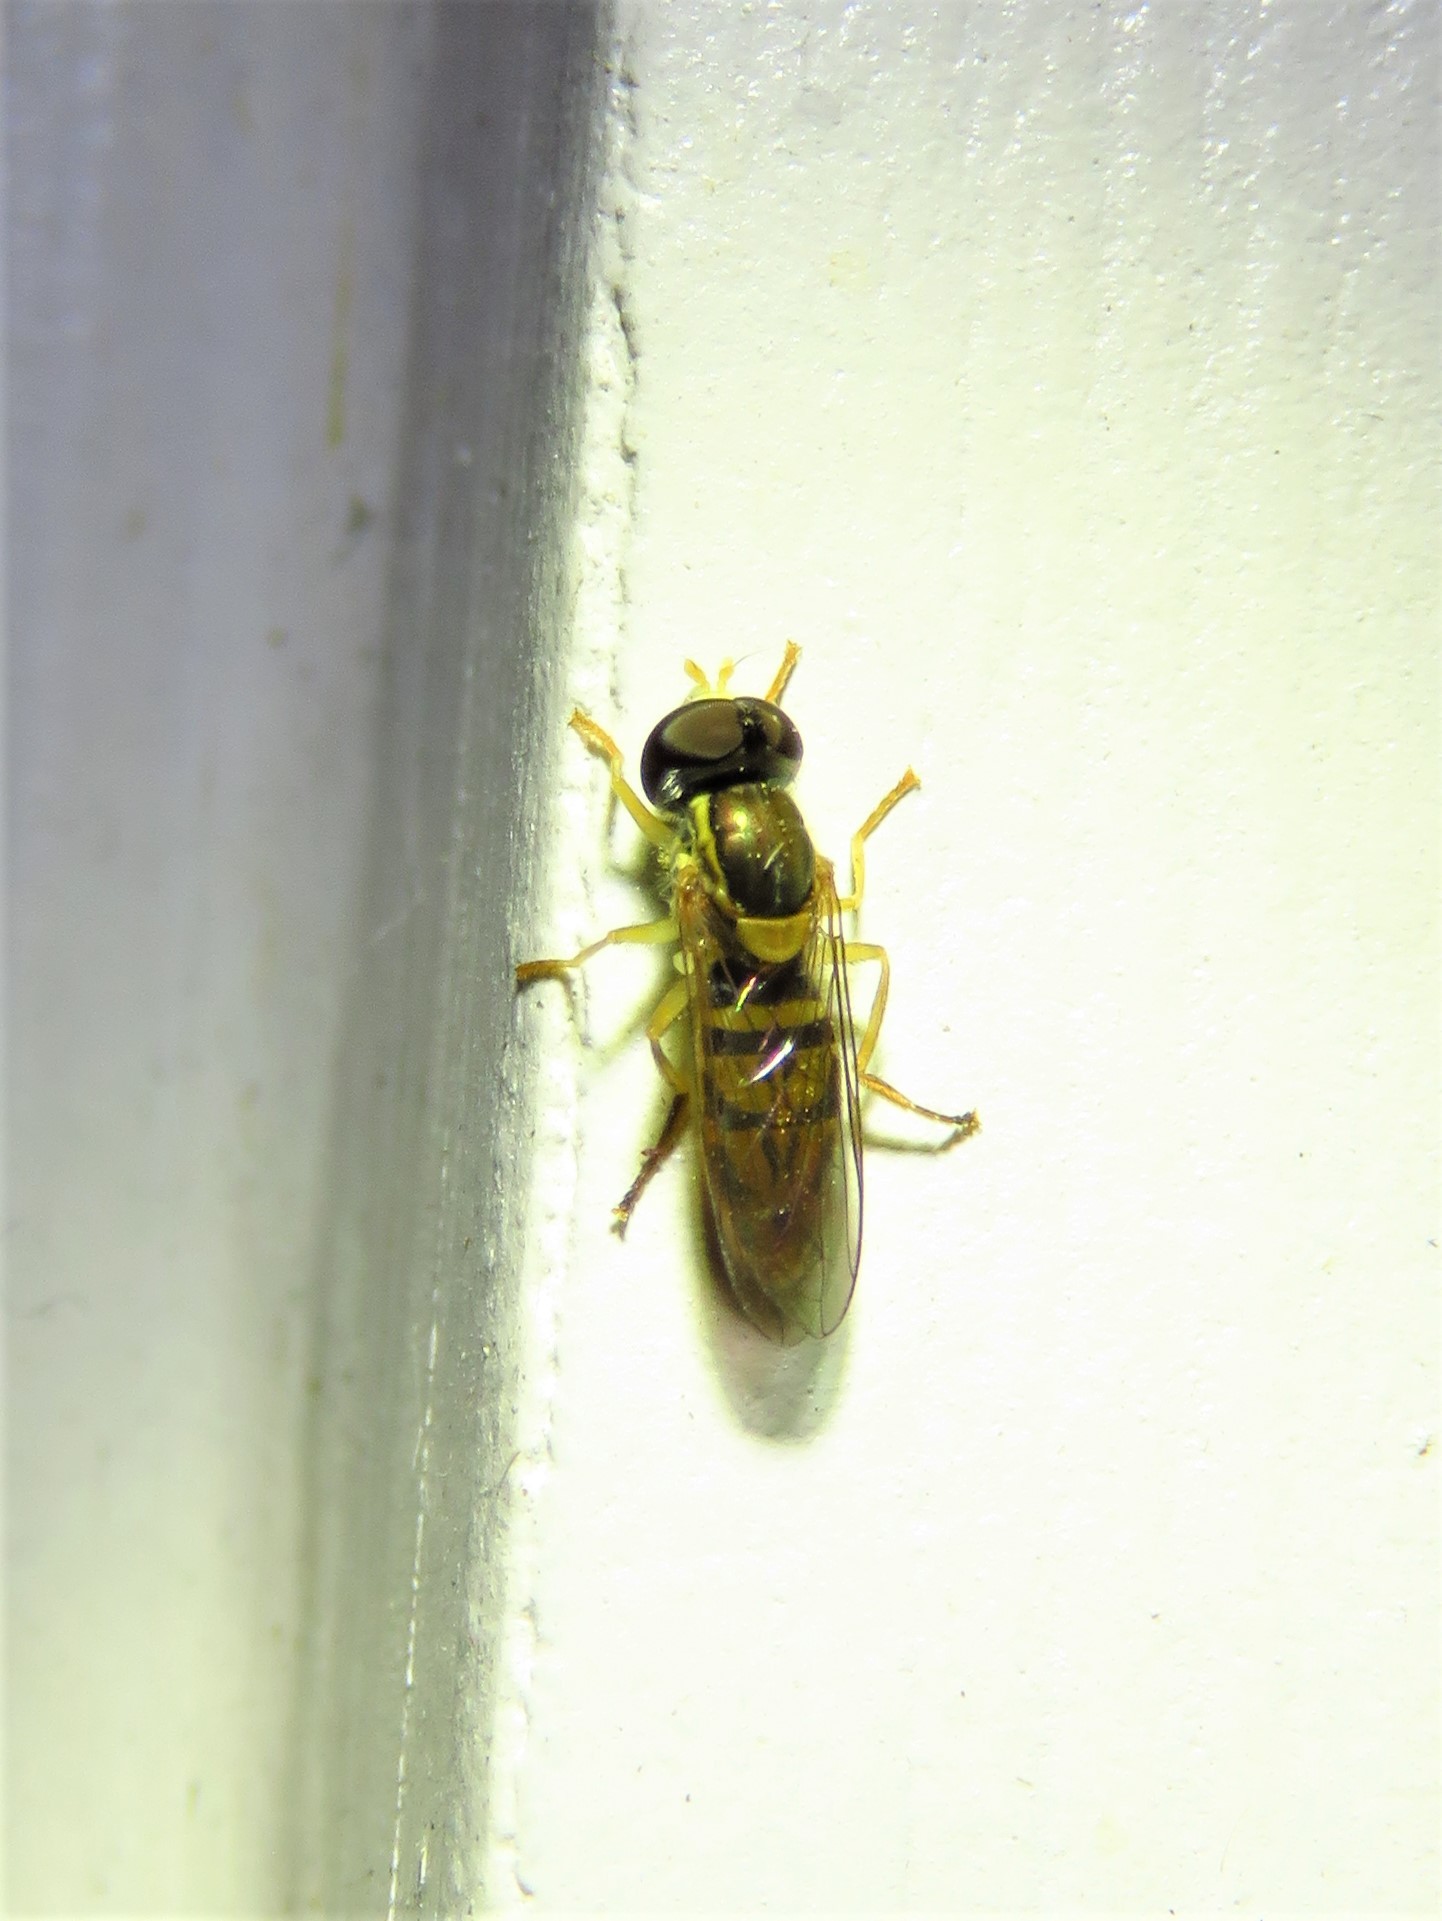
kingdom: Animalia
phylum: Arthropoda
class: Insecta
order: Diptera
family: Syrphidae
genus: Toxomerus
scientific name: Toxomerus marginatus
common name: Syrphid fly
